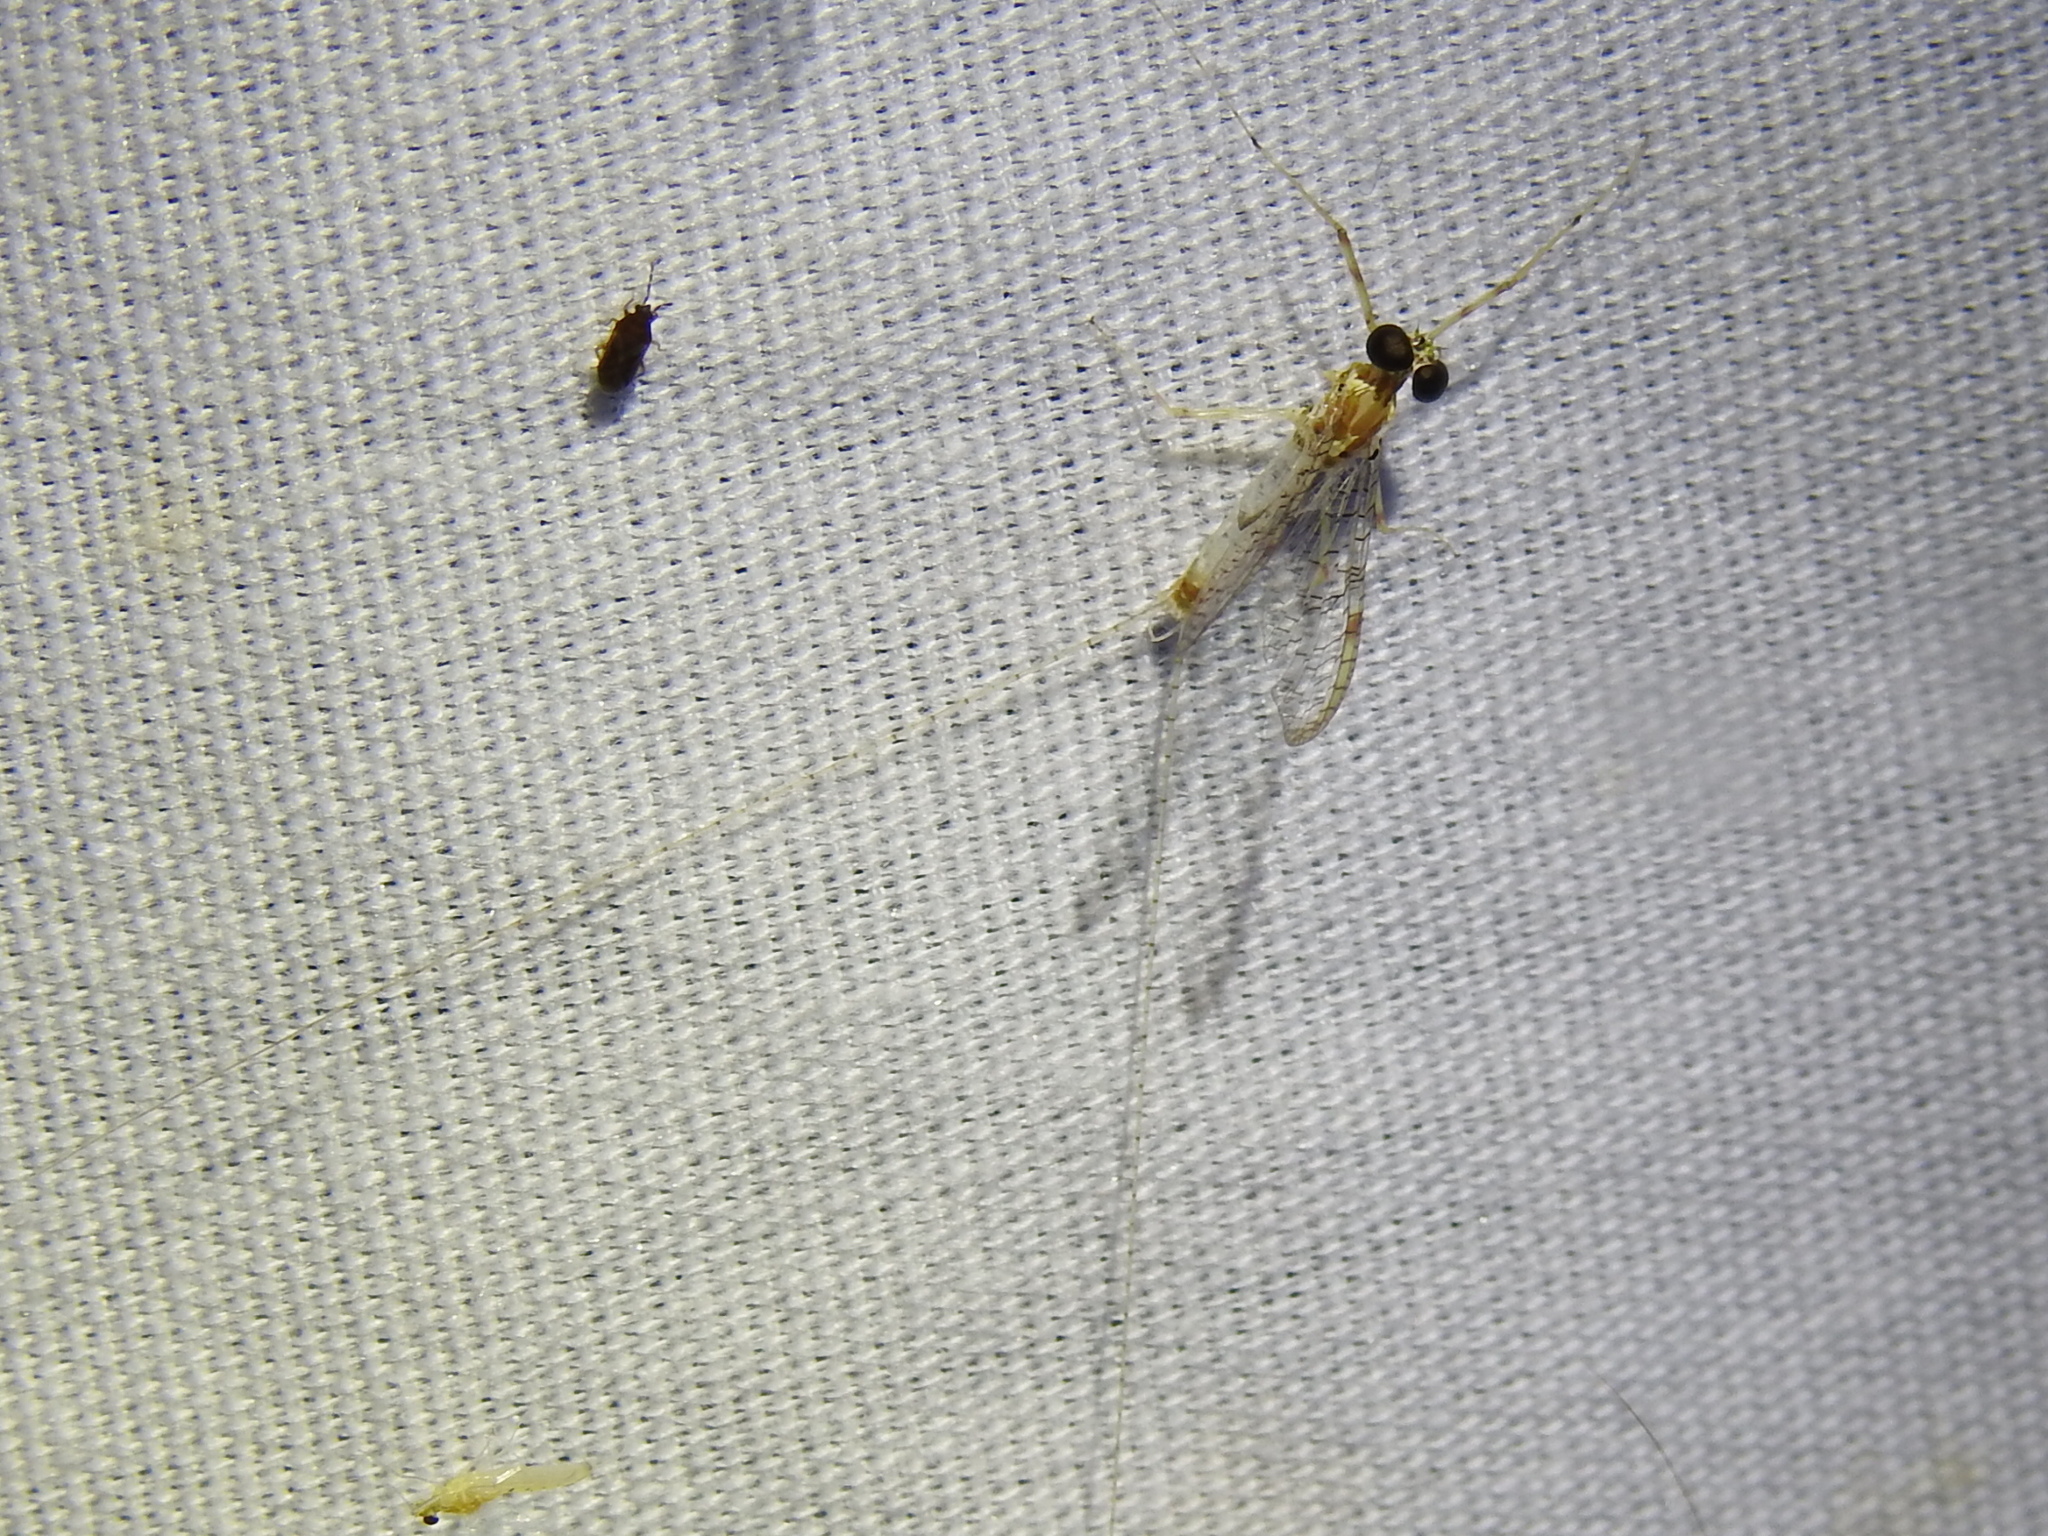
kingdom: Animalia
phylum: Arthropoda
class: Insecta
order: Ephemeroptera
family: Heptageniidae
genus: Maccaffertium
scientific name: Maccaffertium terminatum
